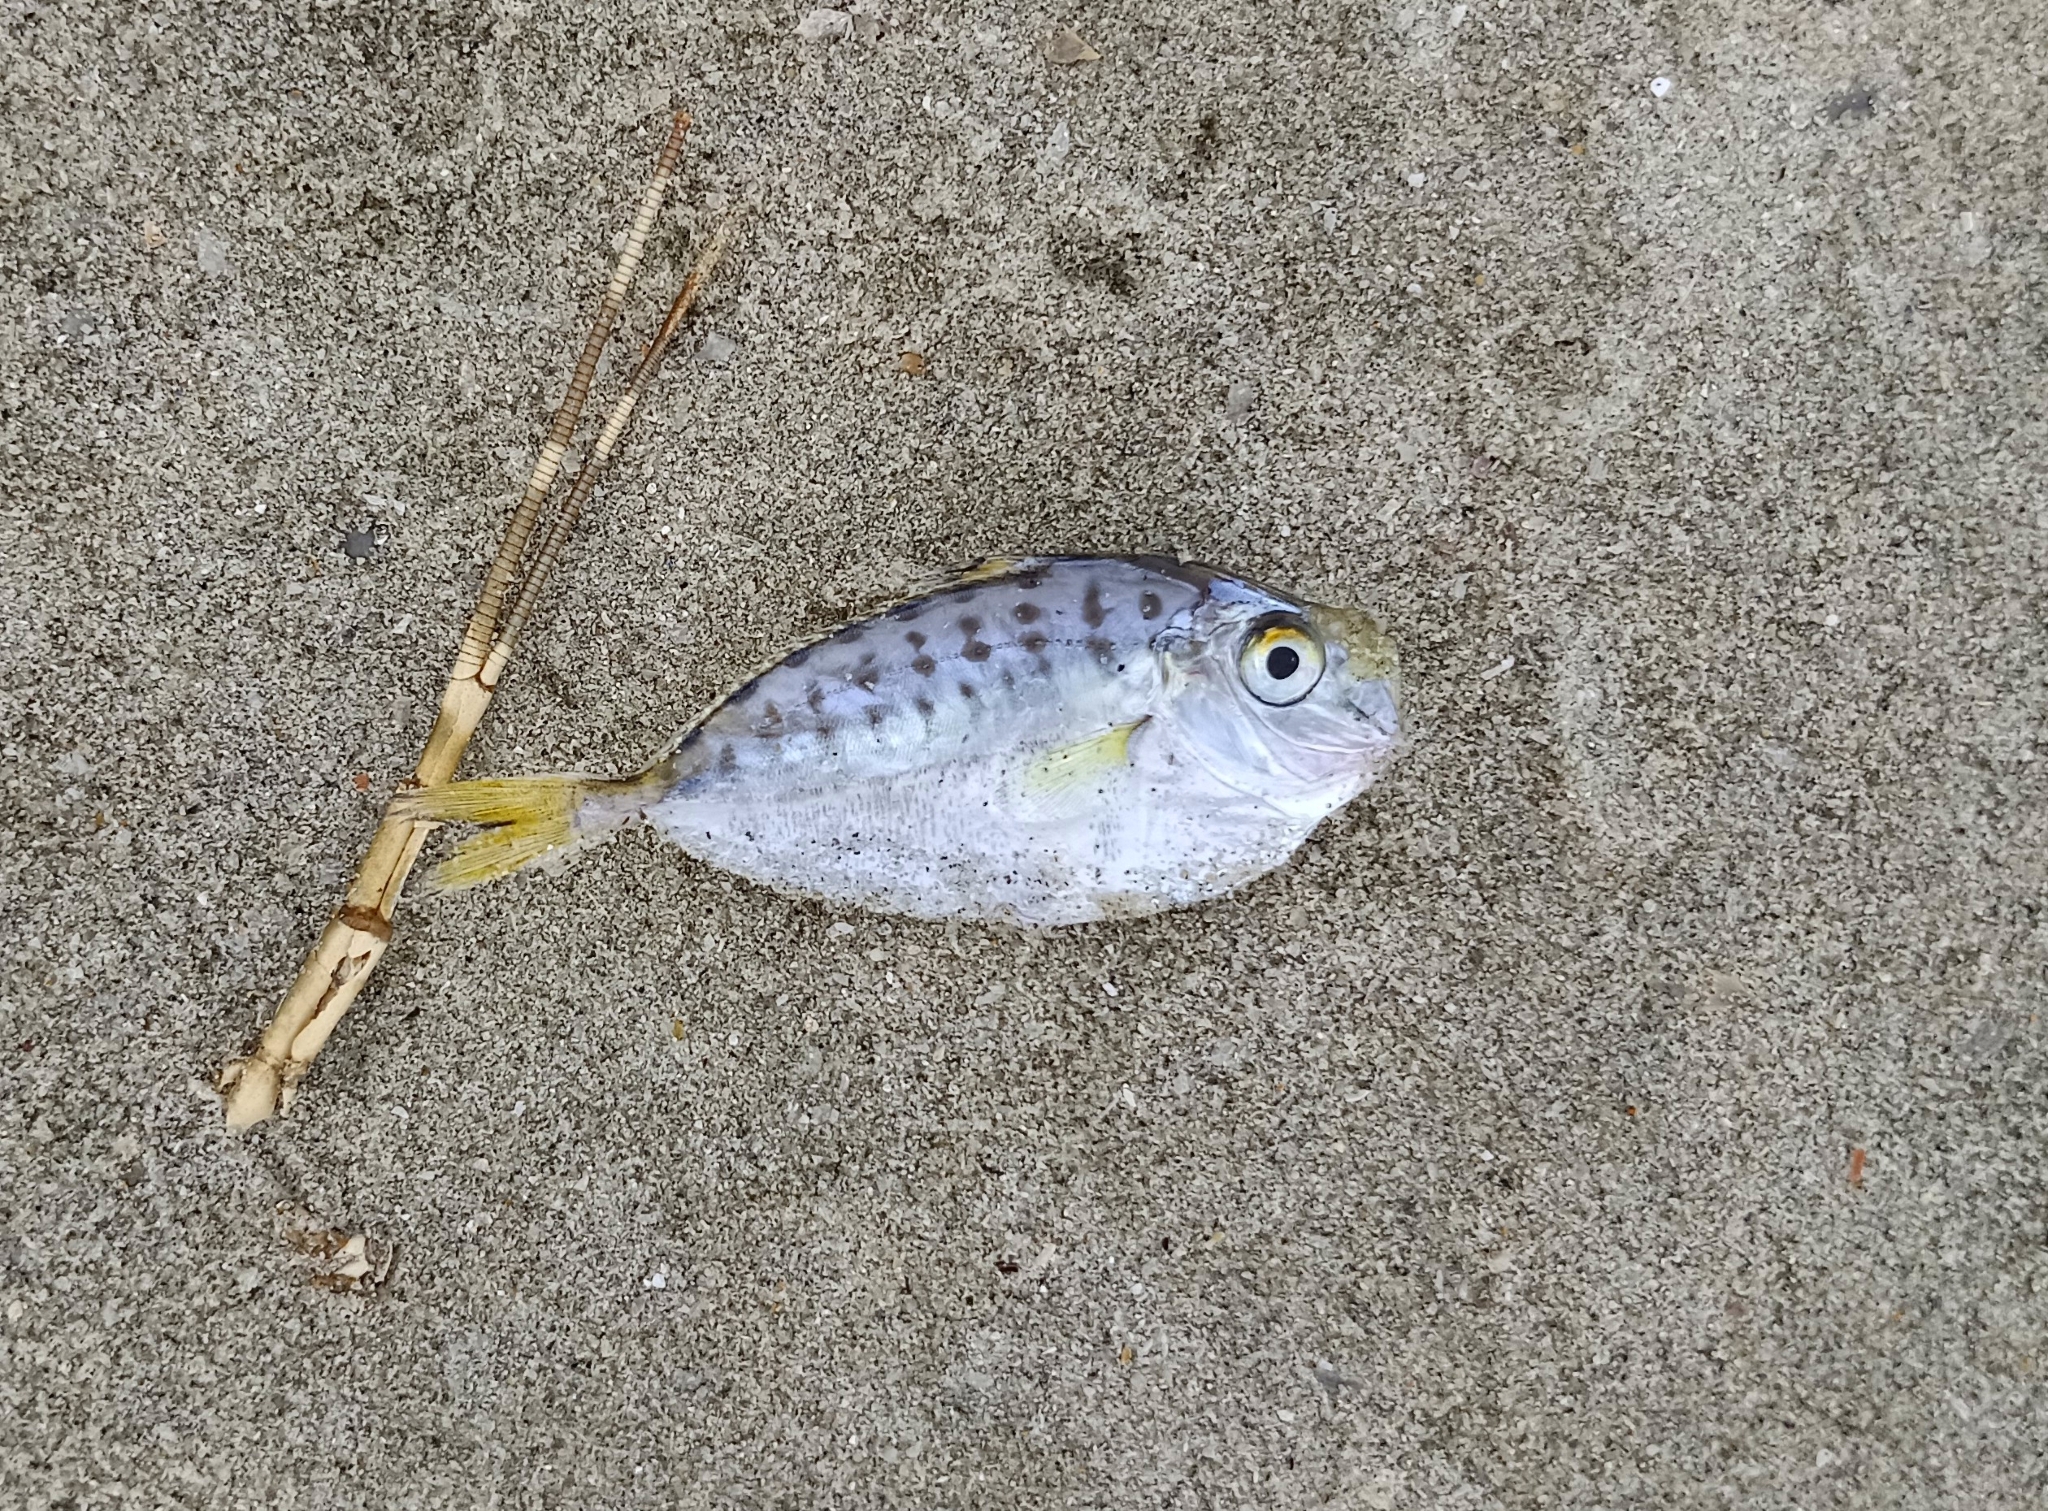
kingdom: Animalia
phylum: Chordata
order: Perciformes
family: Leiognathidae
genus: Secutor
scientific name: Secutor insidiator
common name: Pugnose ponyfish
